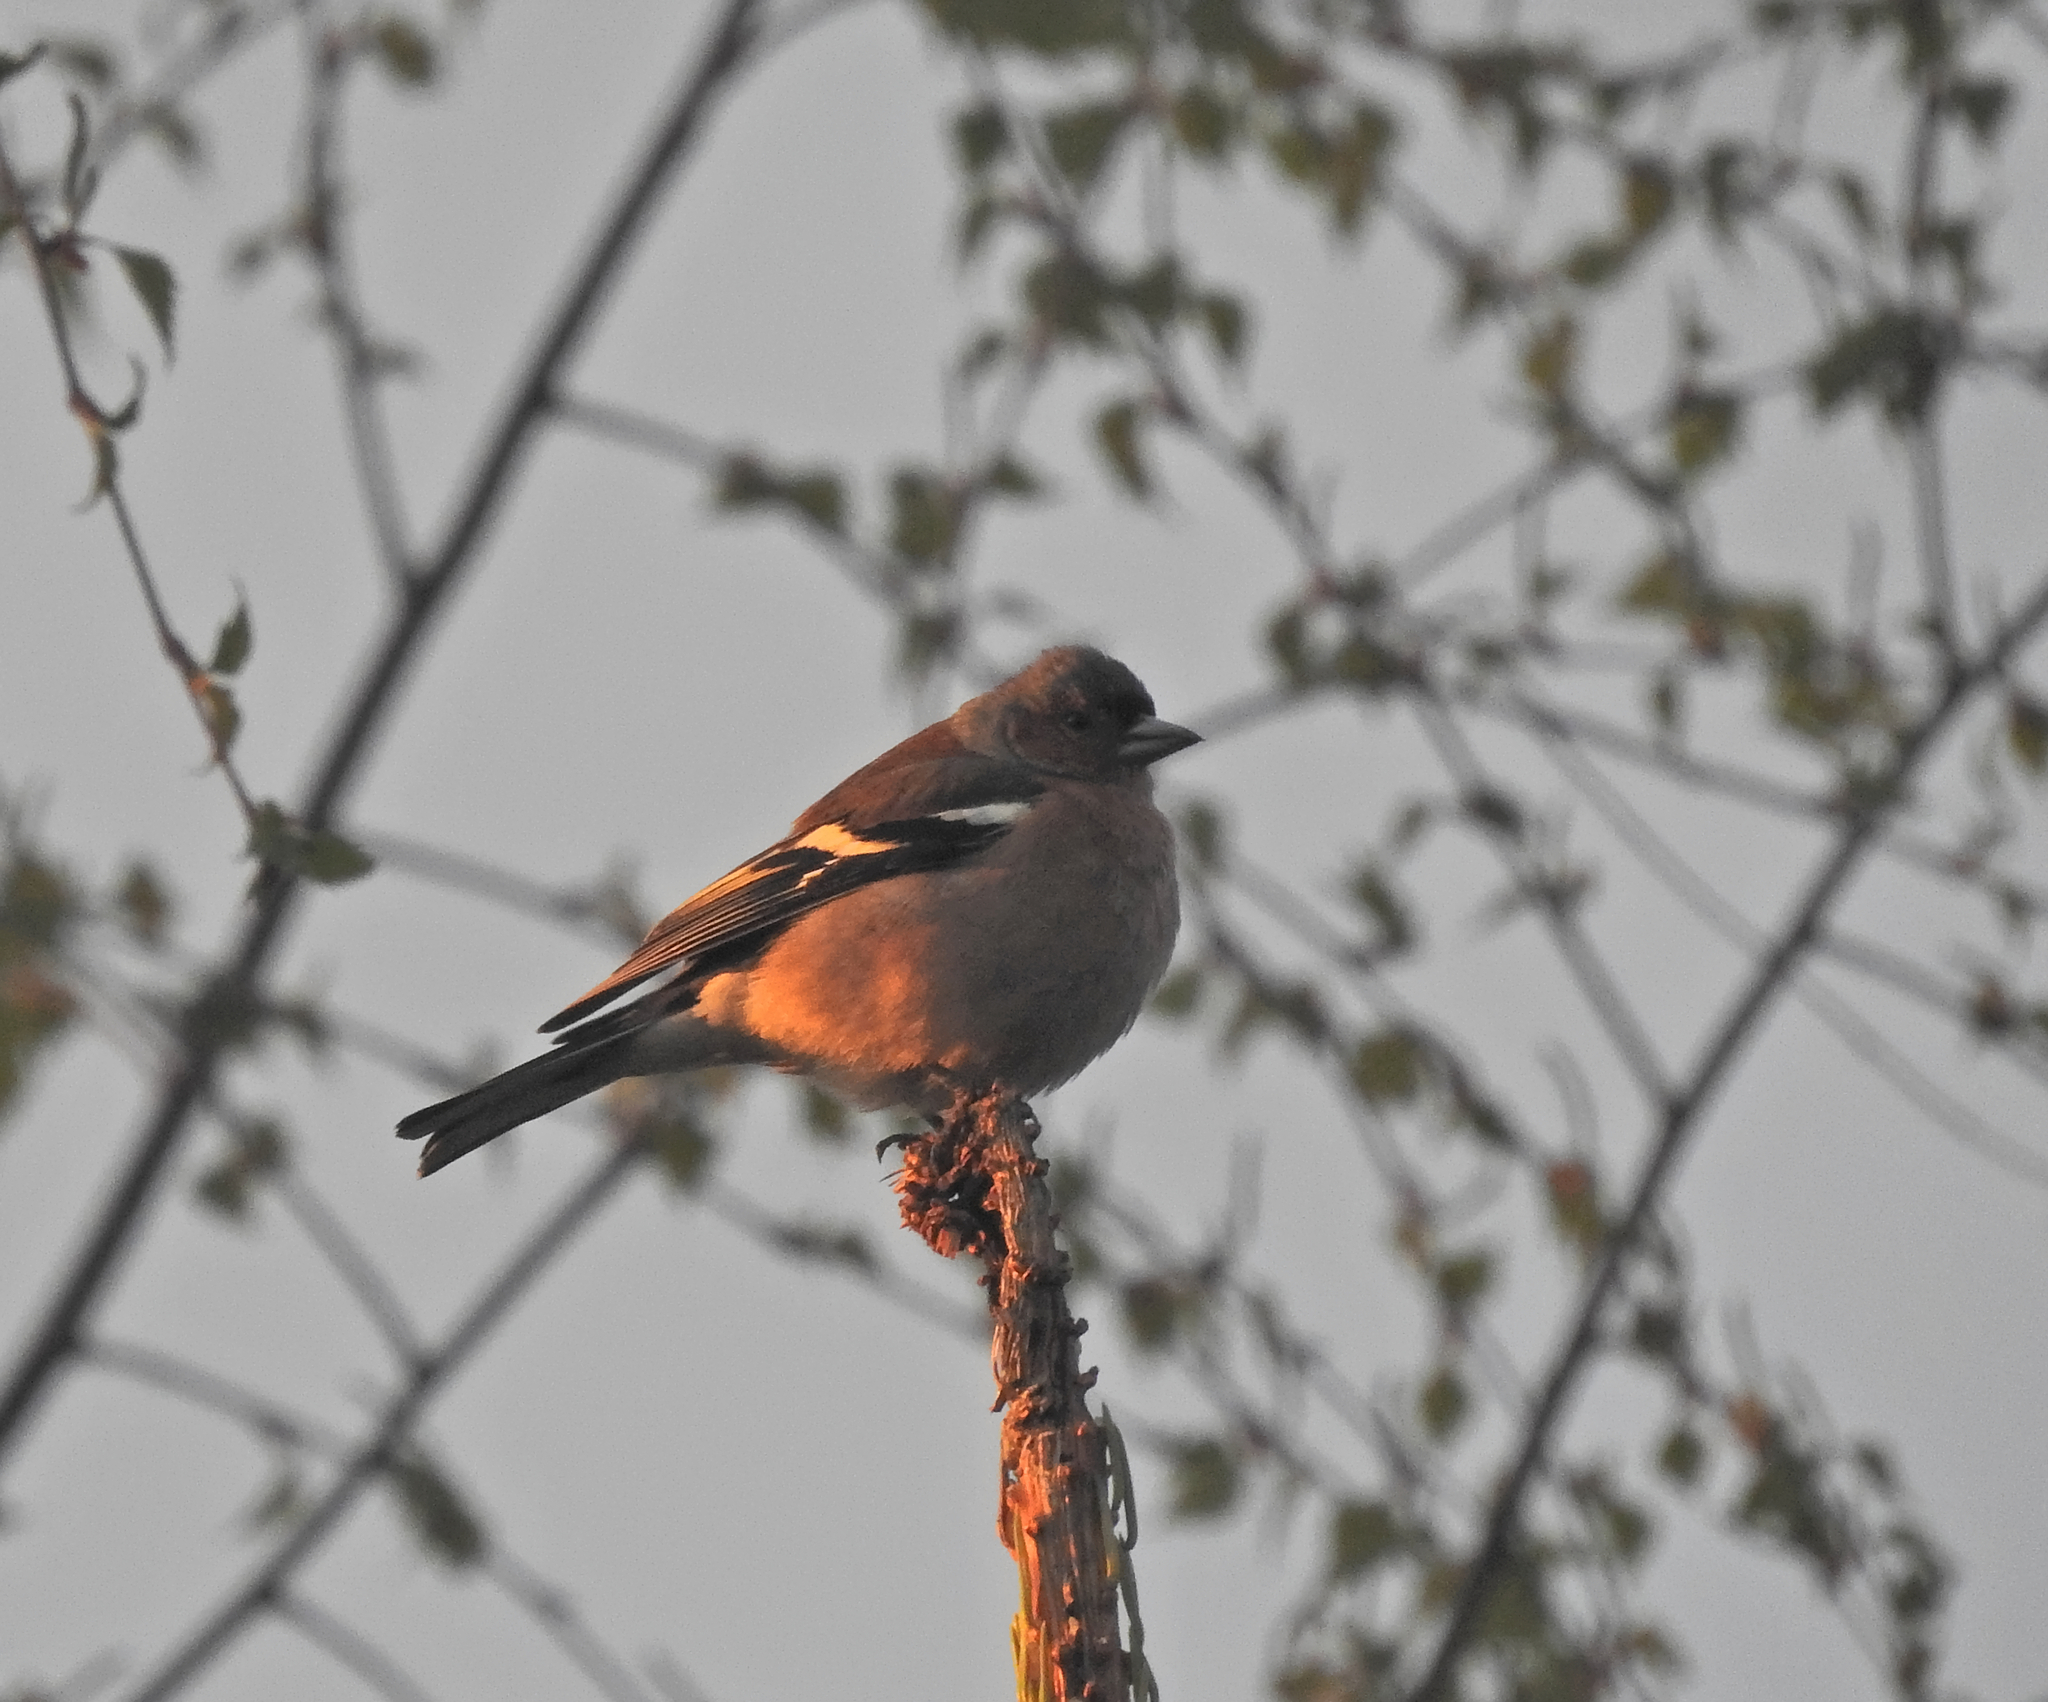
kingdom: Animalia
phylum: Chordata
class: Aves
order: Passeriformes
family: Fringillidae
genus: Fringilla
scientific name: Fringilla coelebs
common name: Common chaffinch
